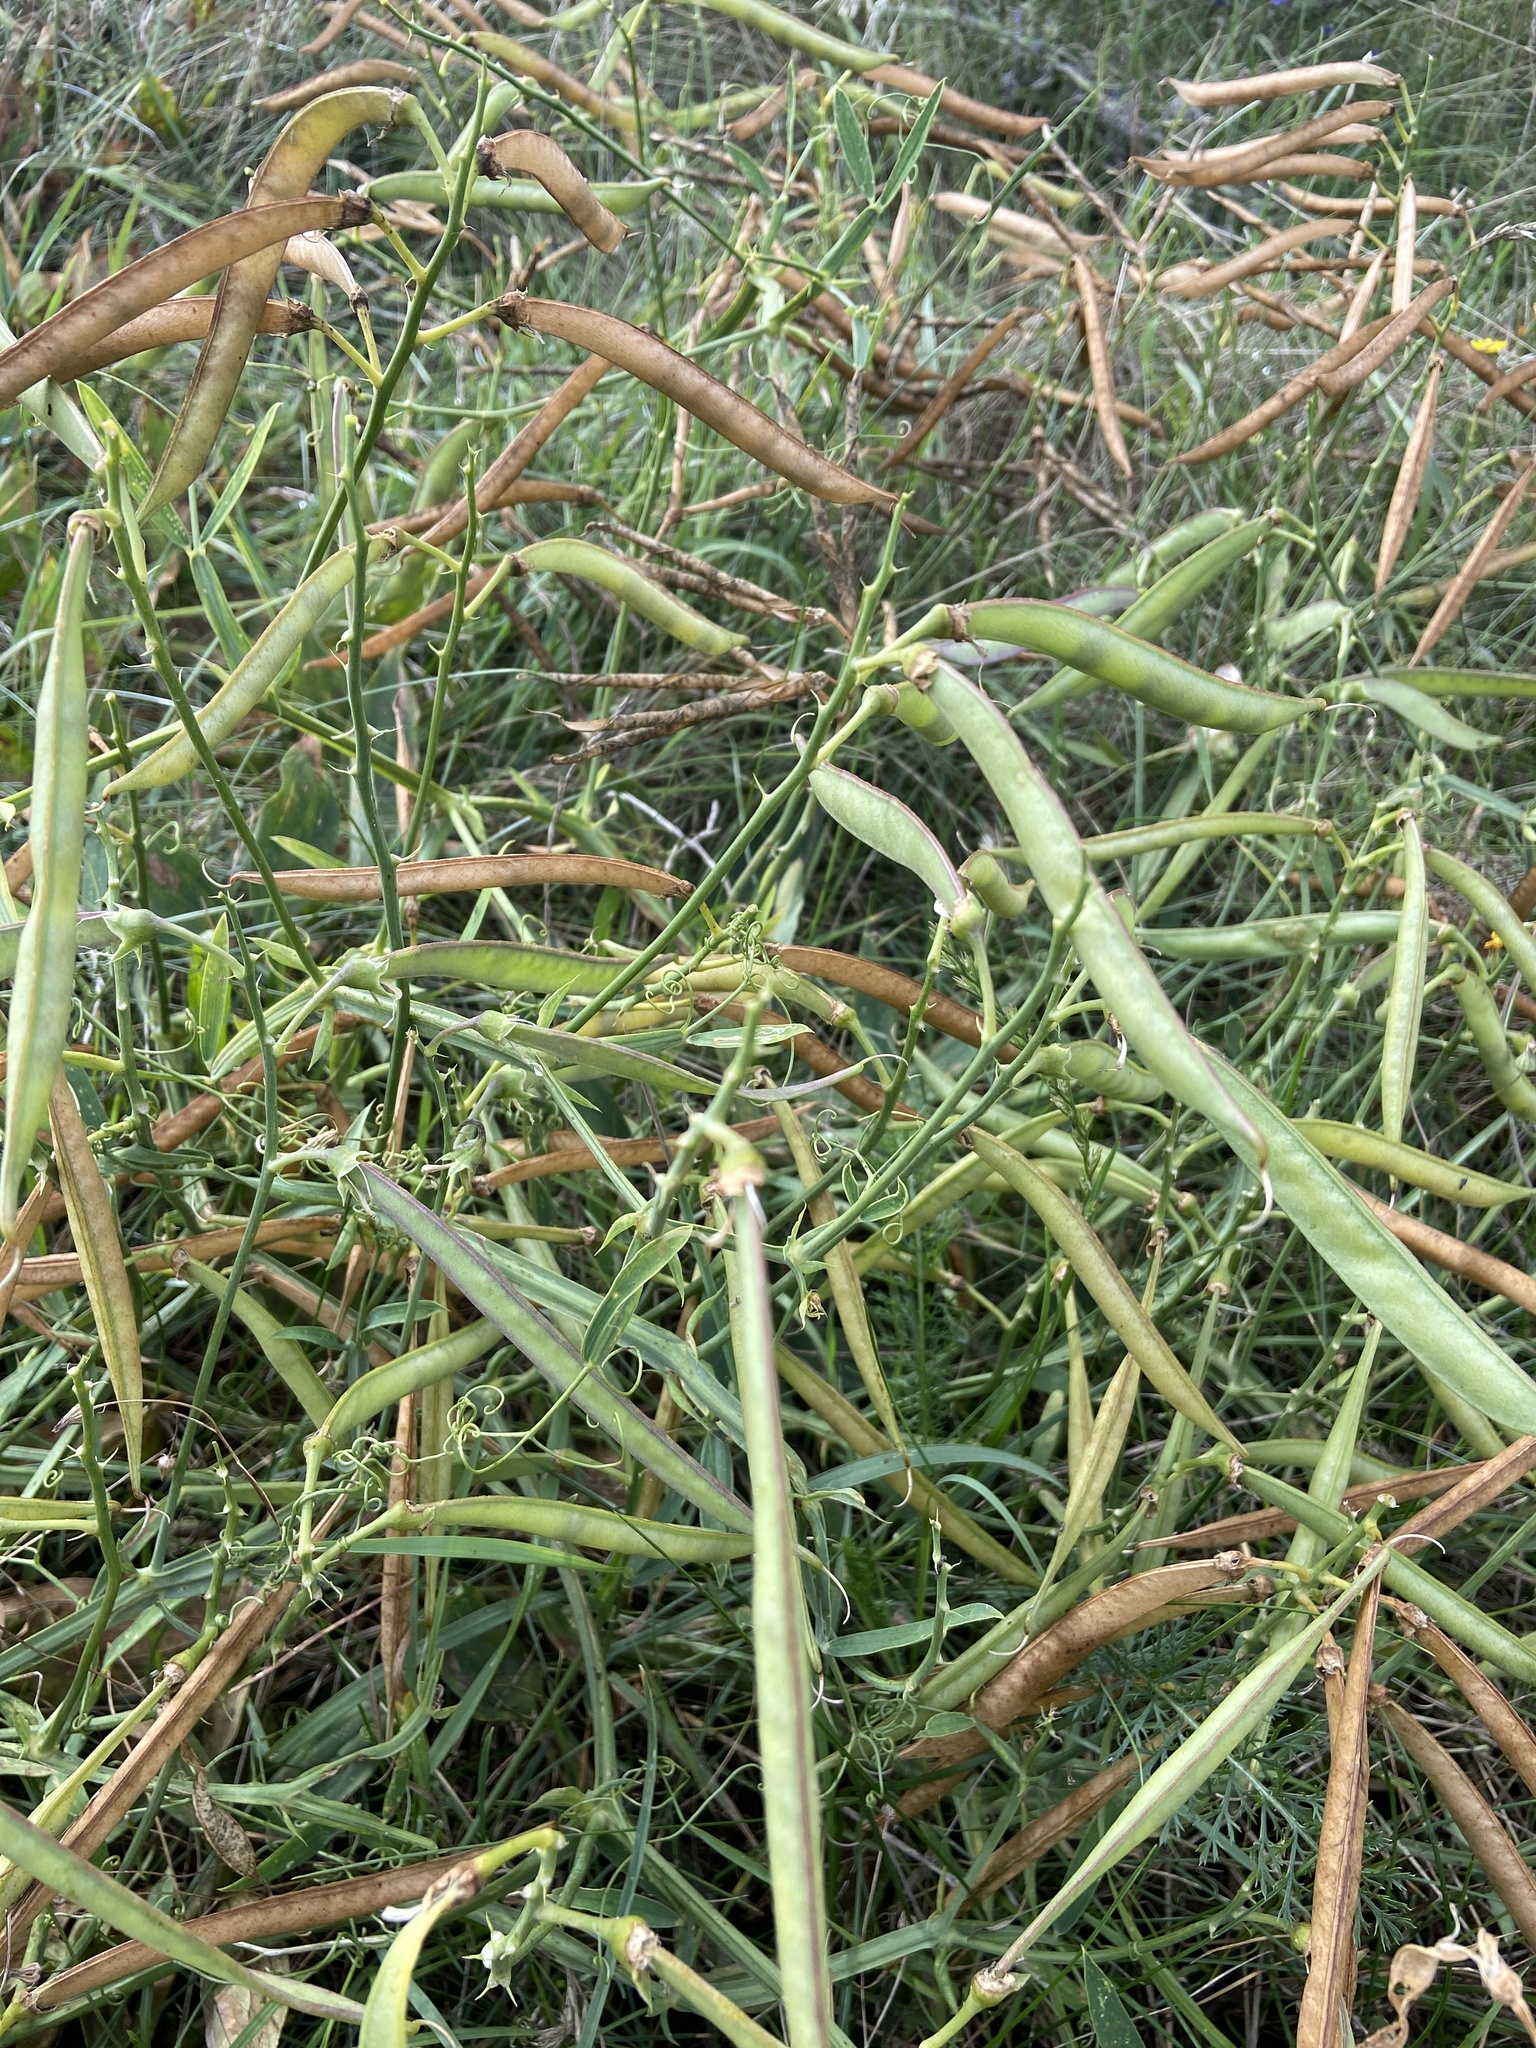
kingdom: Plantae
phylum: Tracheophyta
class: Magnoliopsida
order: Fabales
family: Fabaceae
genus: Lathyrus
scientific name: Lathyrus latifolius
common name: Perennial pea
